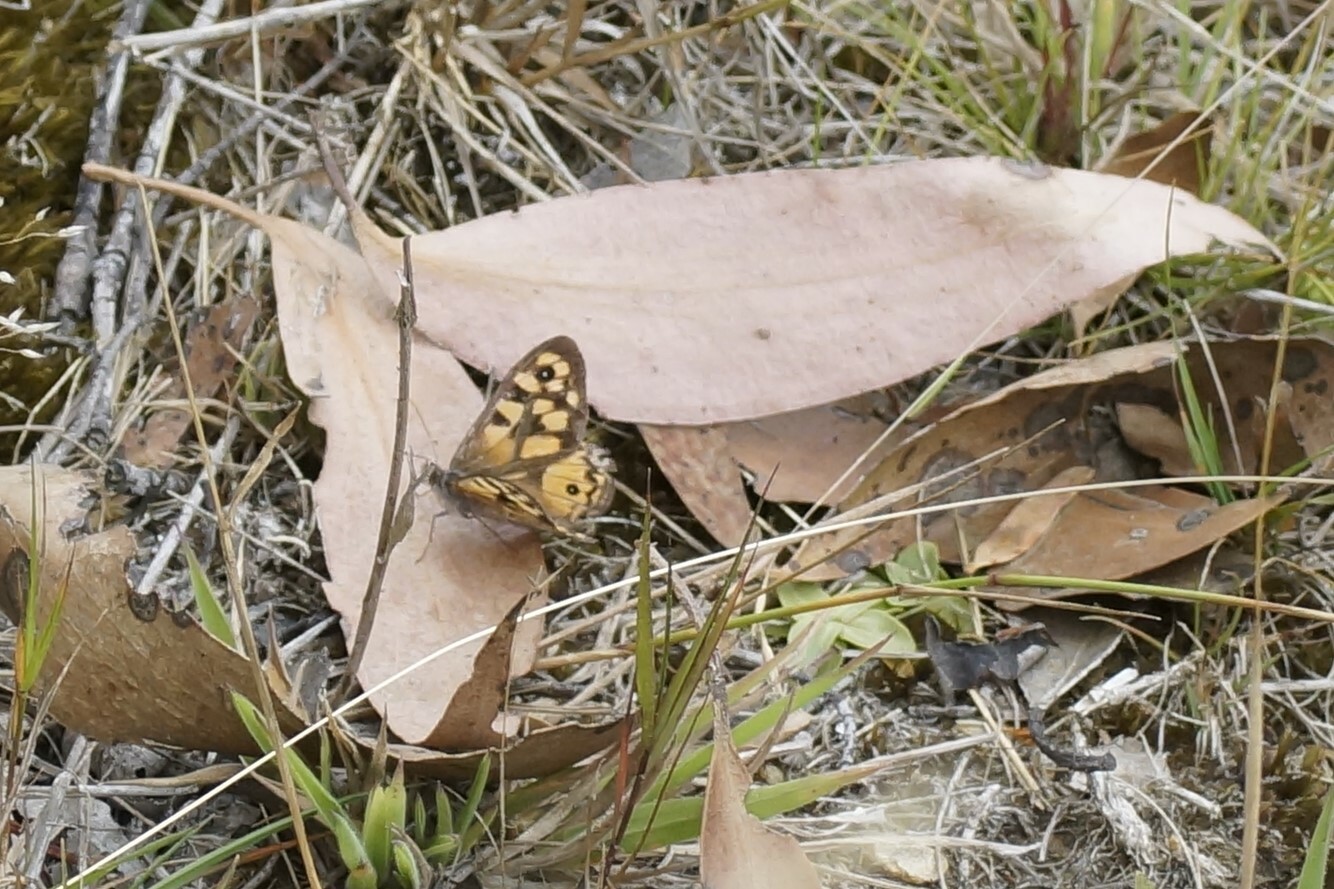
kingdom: Animalia
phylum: Arthropoda
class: Insecta
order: Lepidoptera
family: Nymphalidae
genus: Geitoneura
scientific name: Geitoneura klugii
